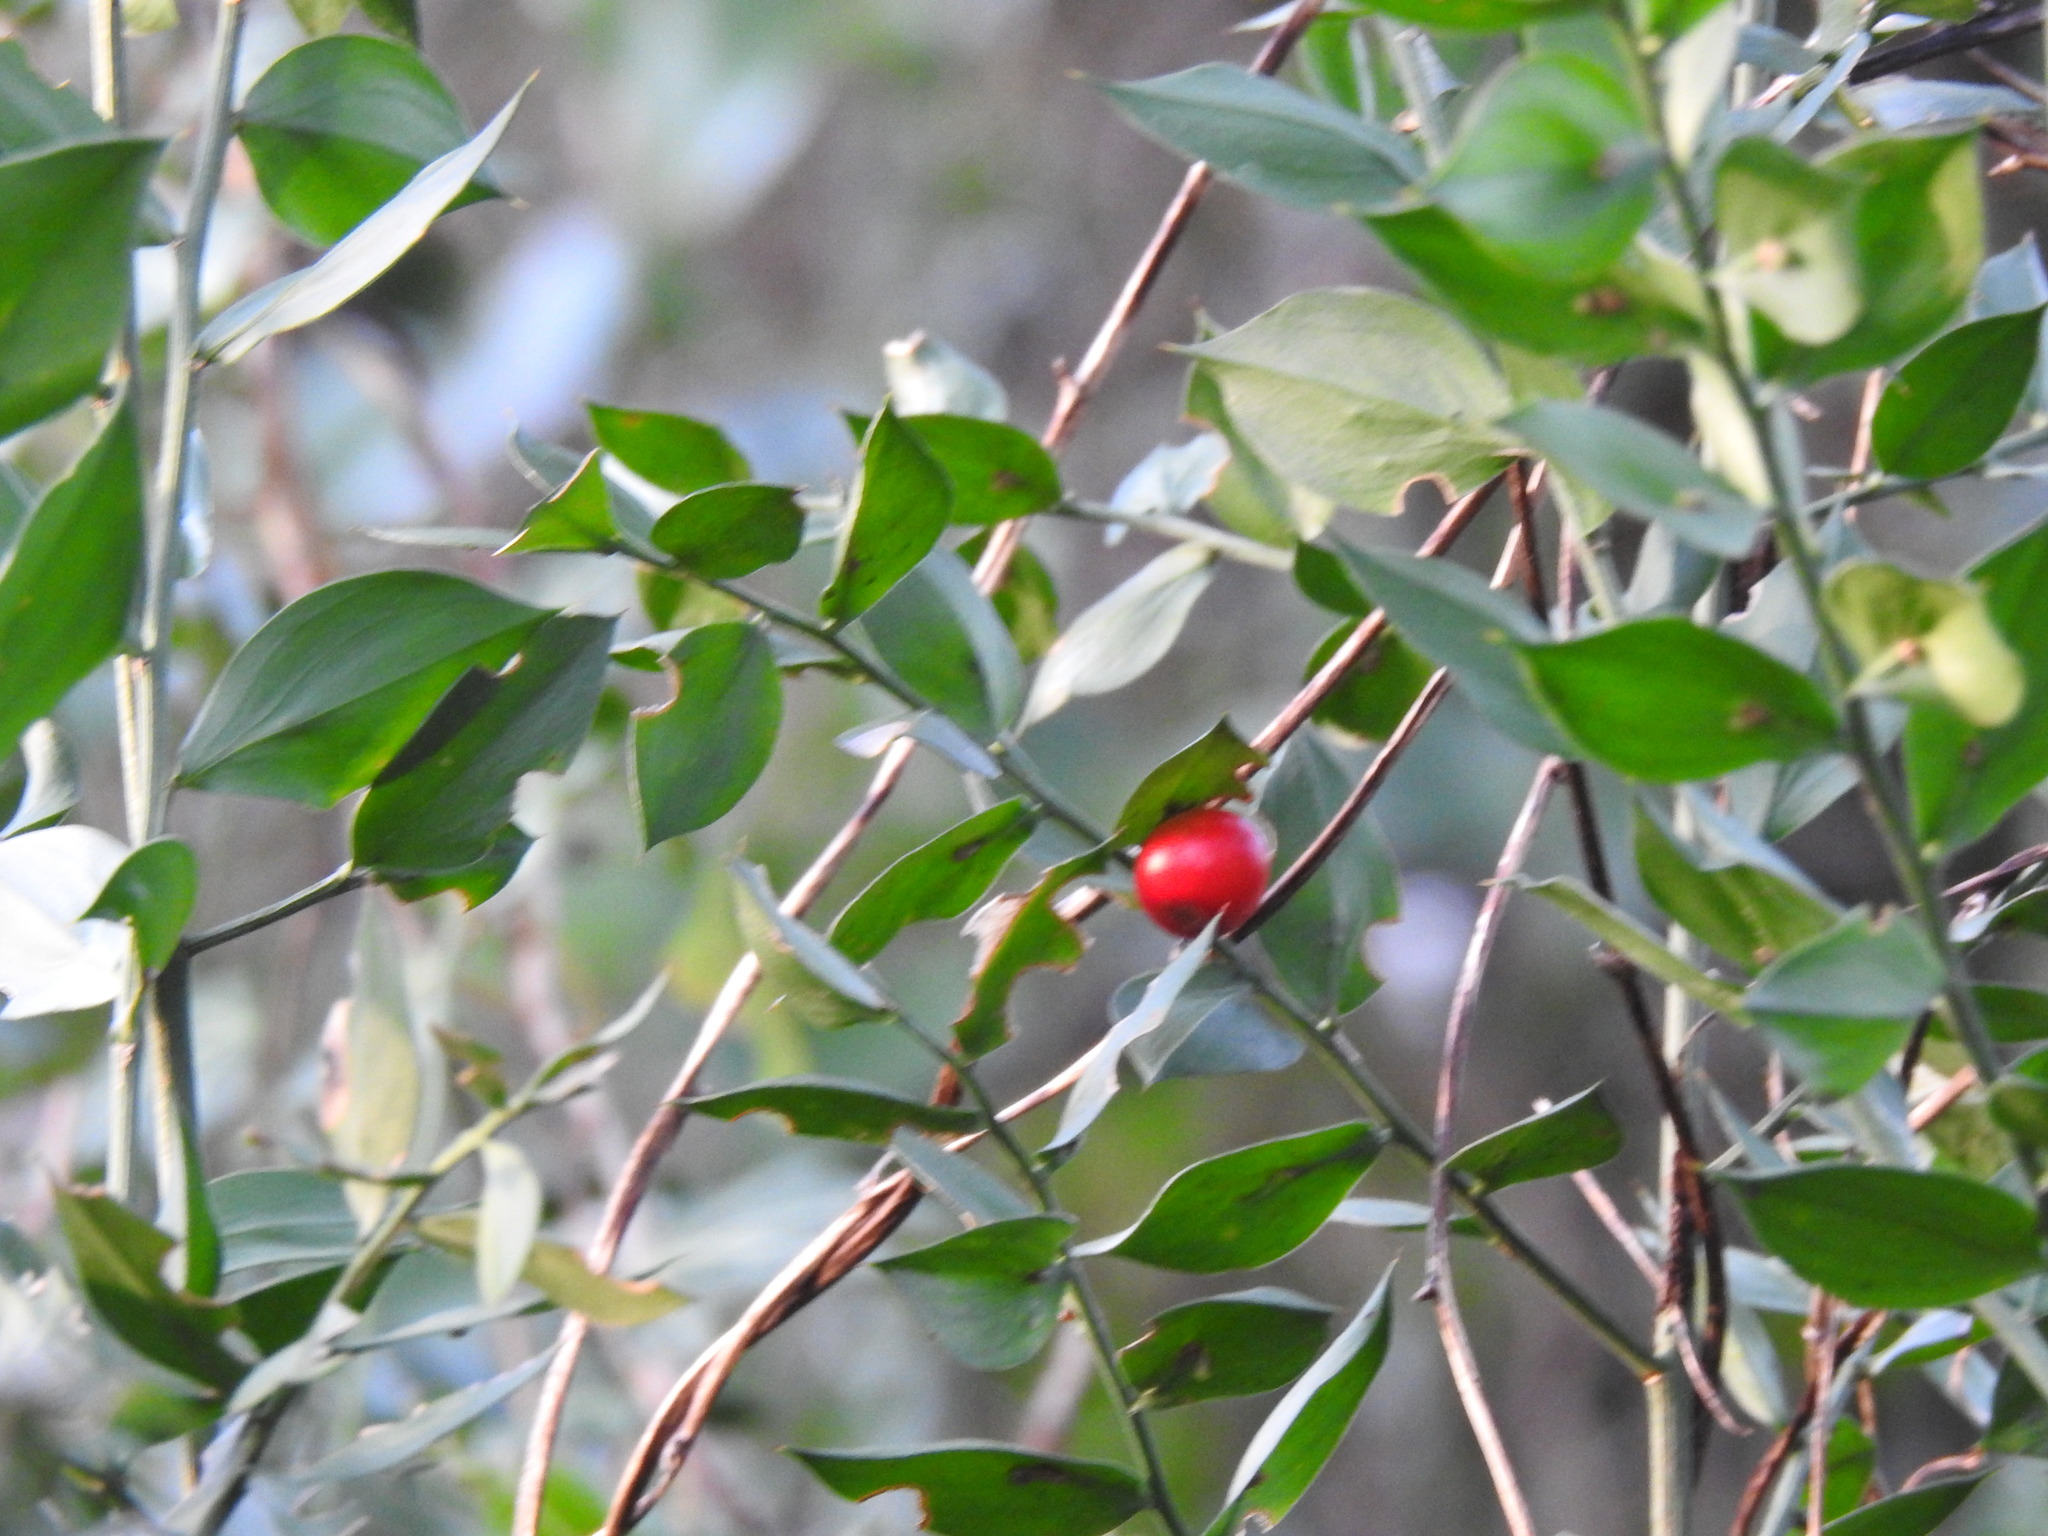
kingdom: Plantae
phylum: Tracheophyta
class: Liliopsida
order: Asparagales
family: Asparagaceae
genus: Ruscus
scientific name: Ruscus aculeatus
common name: Butcher's-broom
